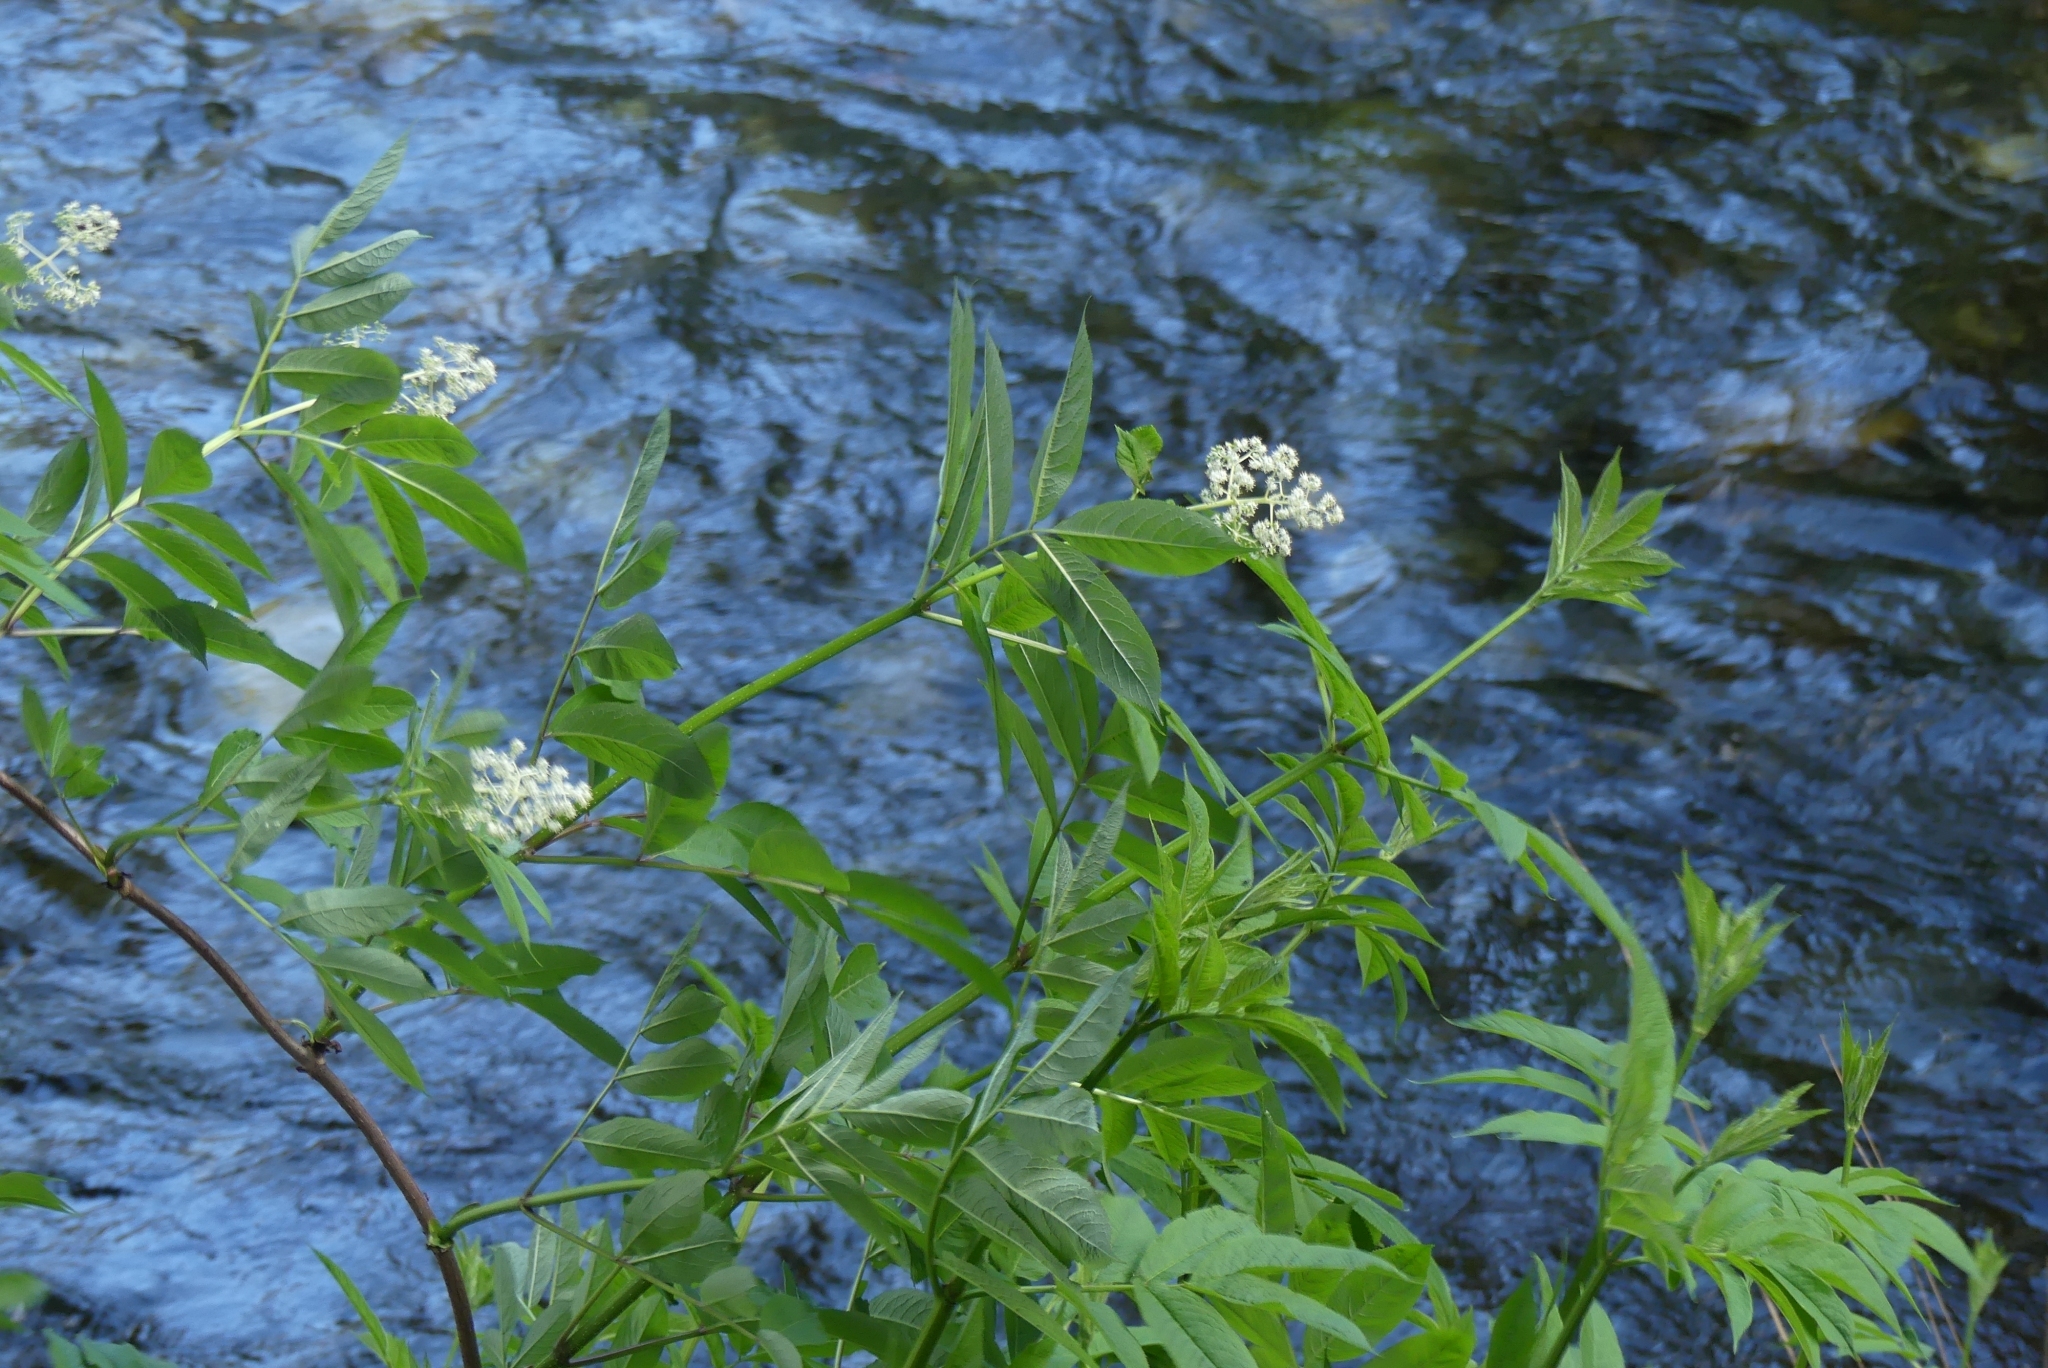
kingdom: Plantae
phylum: Tracheophyta
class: Magnoliopsida
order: Dipsacales
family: Viburnaceae
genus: Sambucus
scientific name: Sambucus racemosa
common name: Red-berried elder
